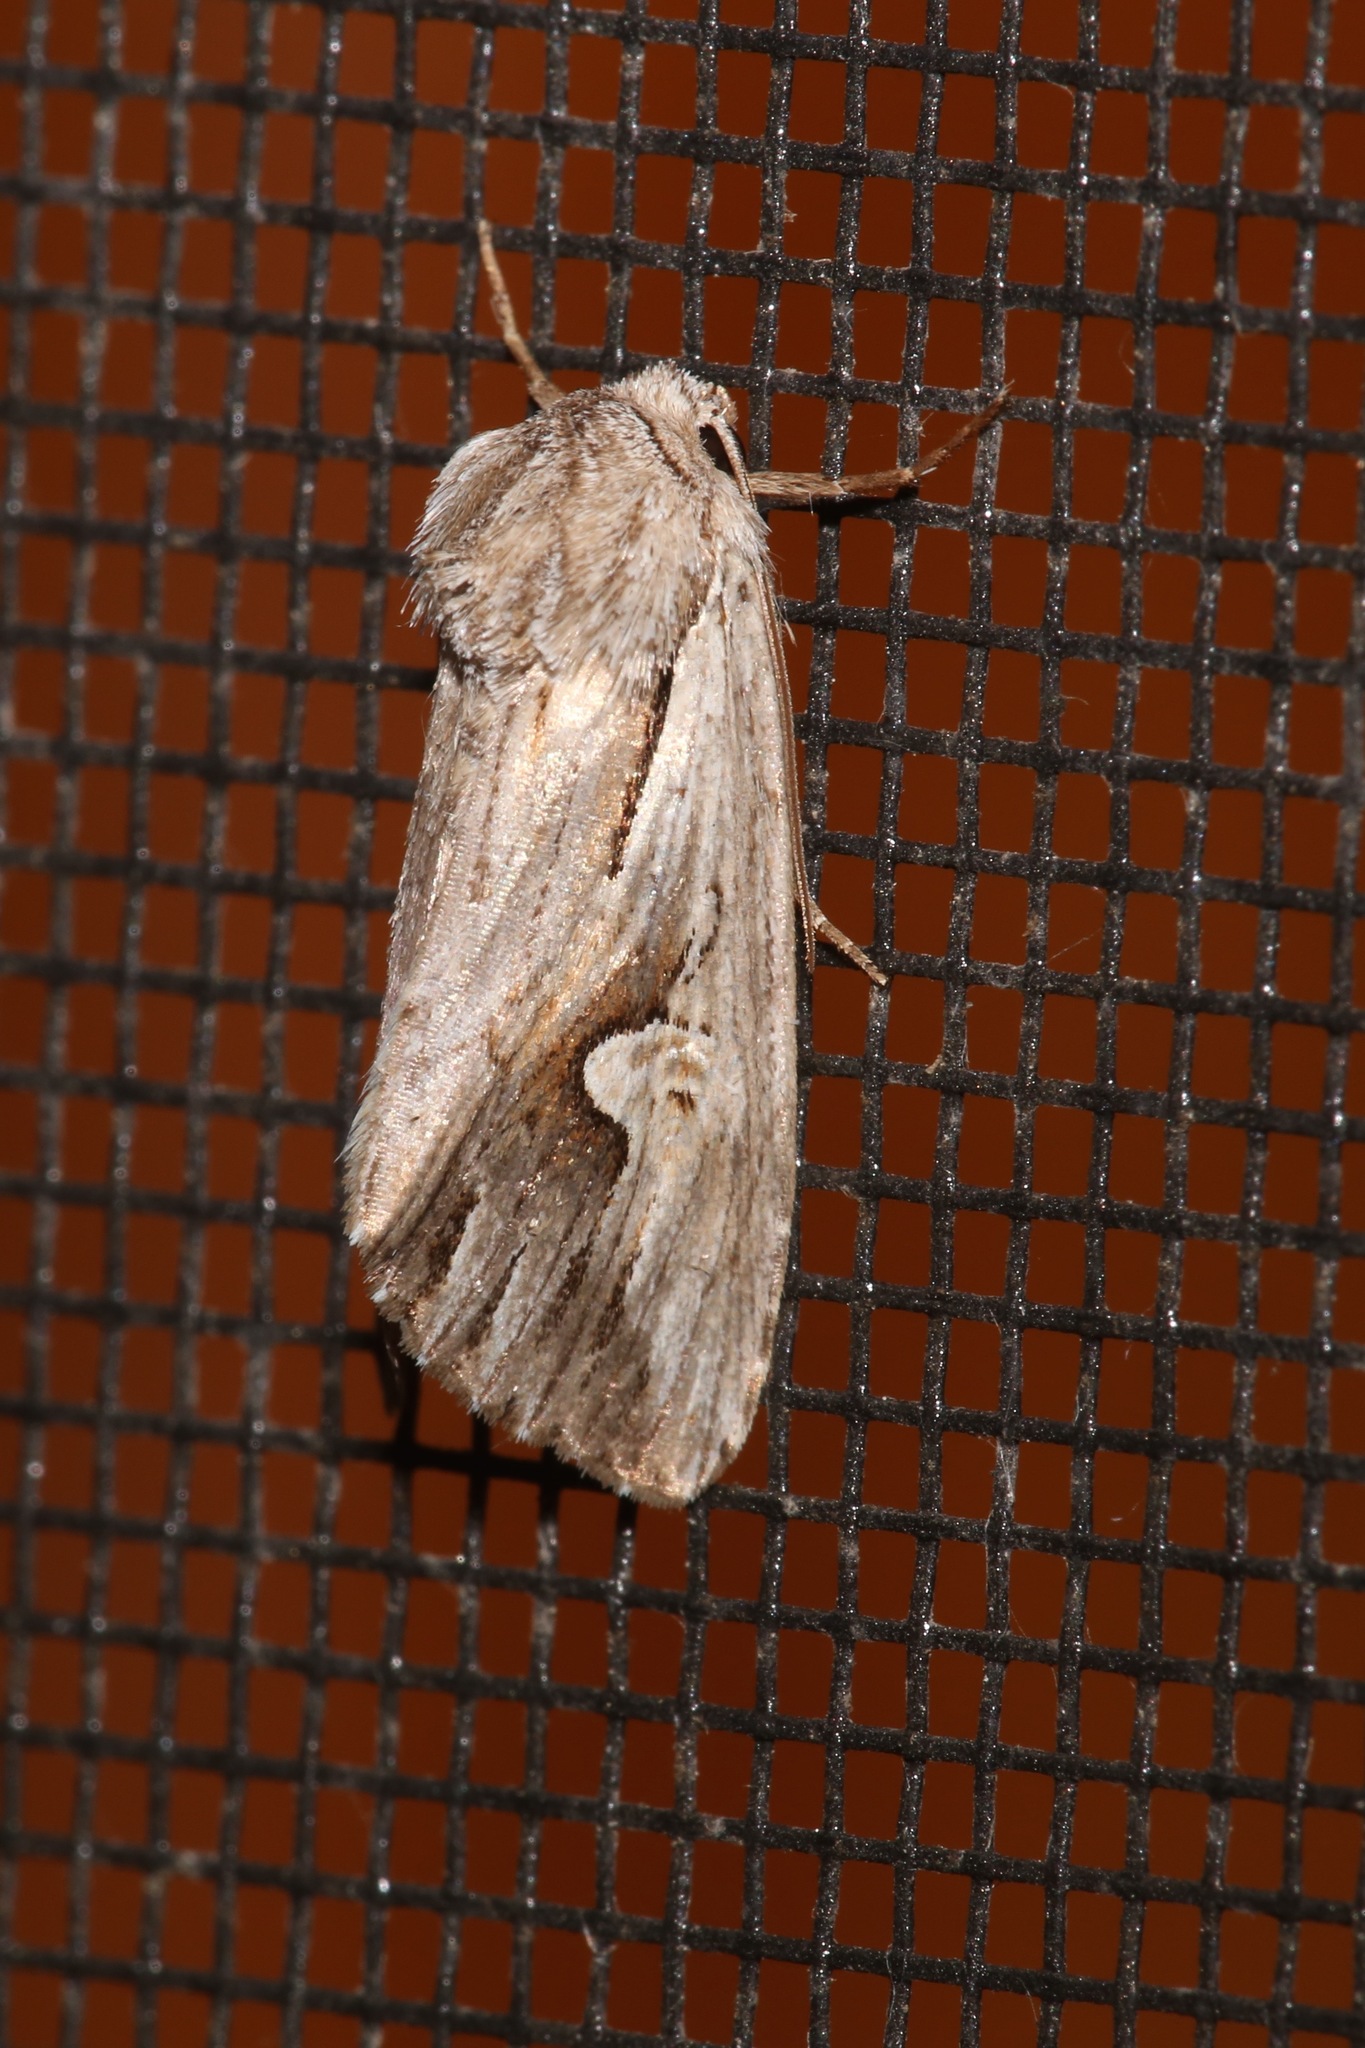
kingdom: Animalia
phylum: Arthropoda
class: Insecta
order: Lepidoptera
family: Noctuidae
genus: Nedra
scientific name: Nedra ramosula
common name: Gray half-spot
